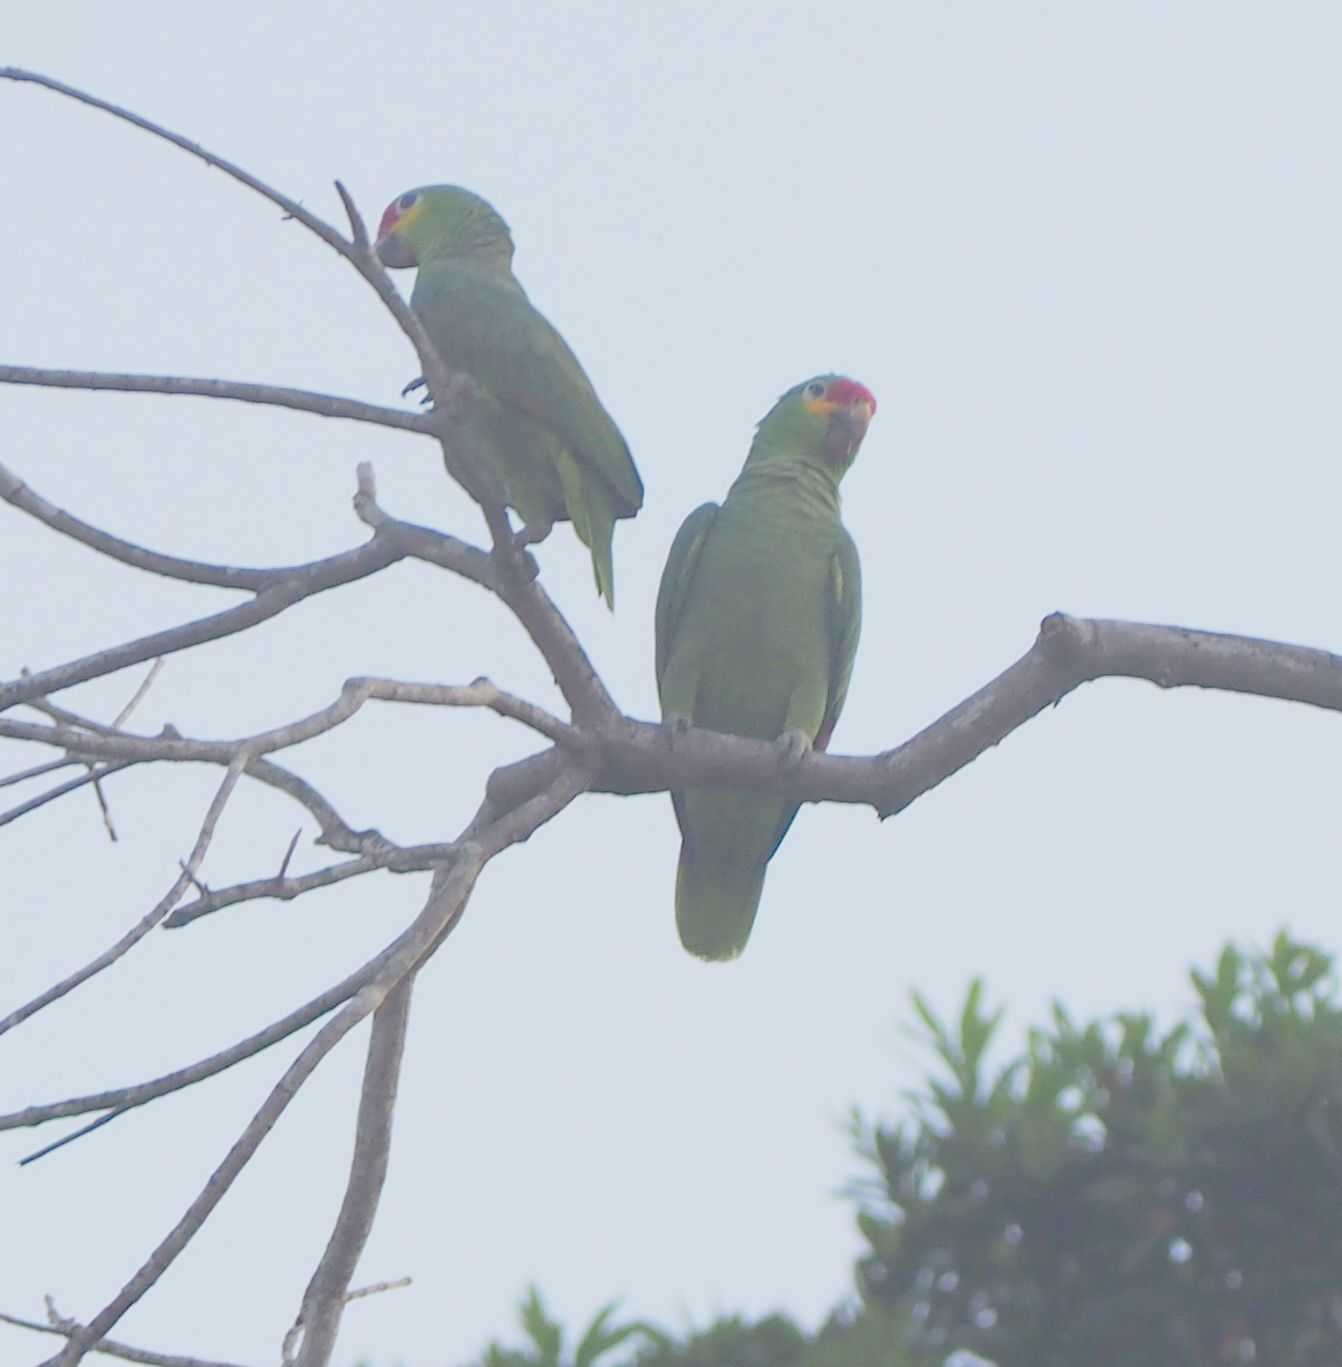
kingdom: Animalia
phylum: Chordata
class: Aves
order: Psittaciformes
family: Psittacidae
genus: Amazona
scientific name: Amazona autumnalis
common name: Red-lored amazon
